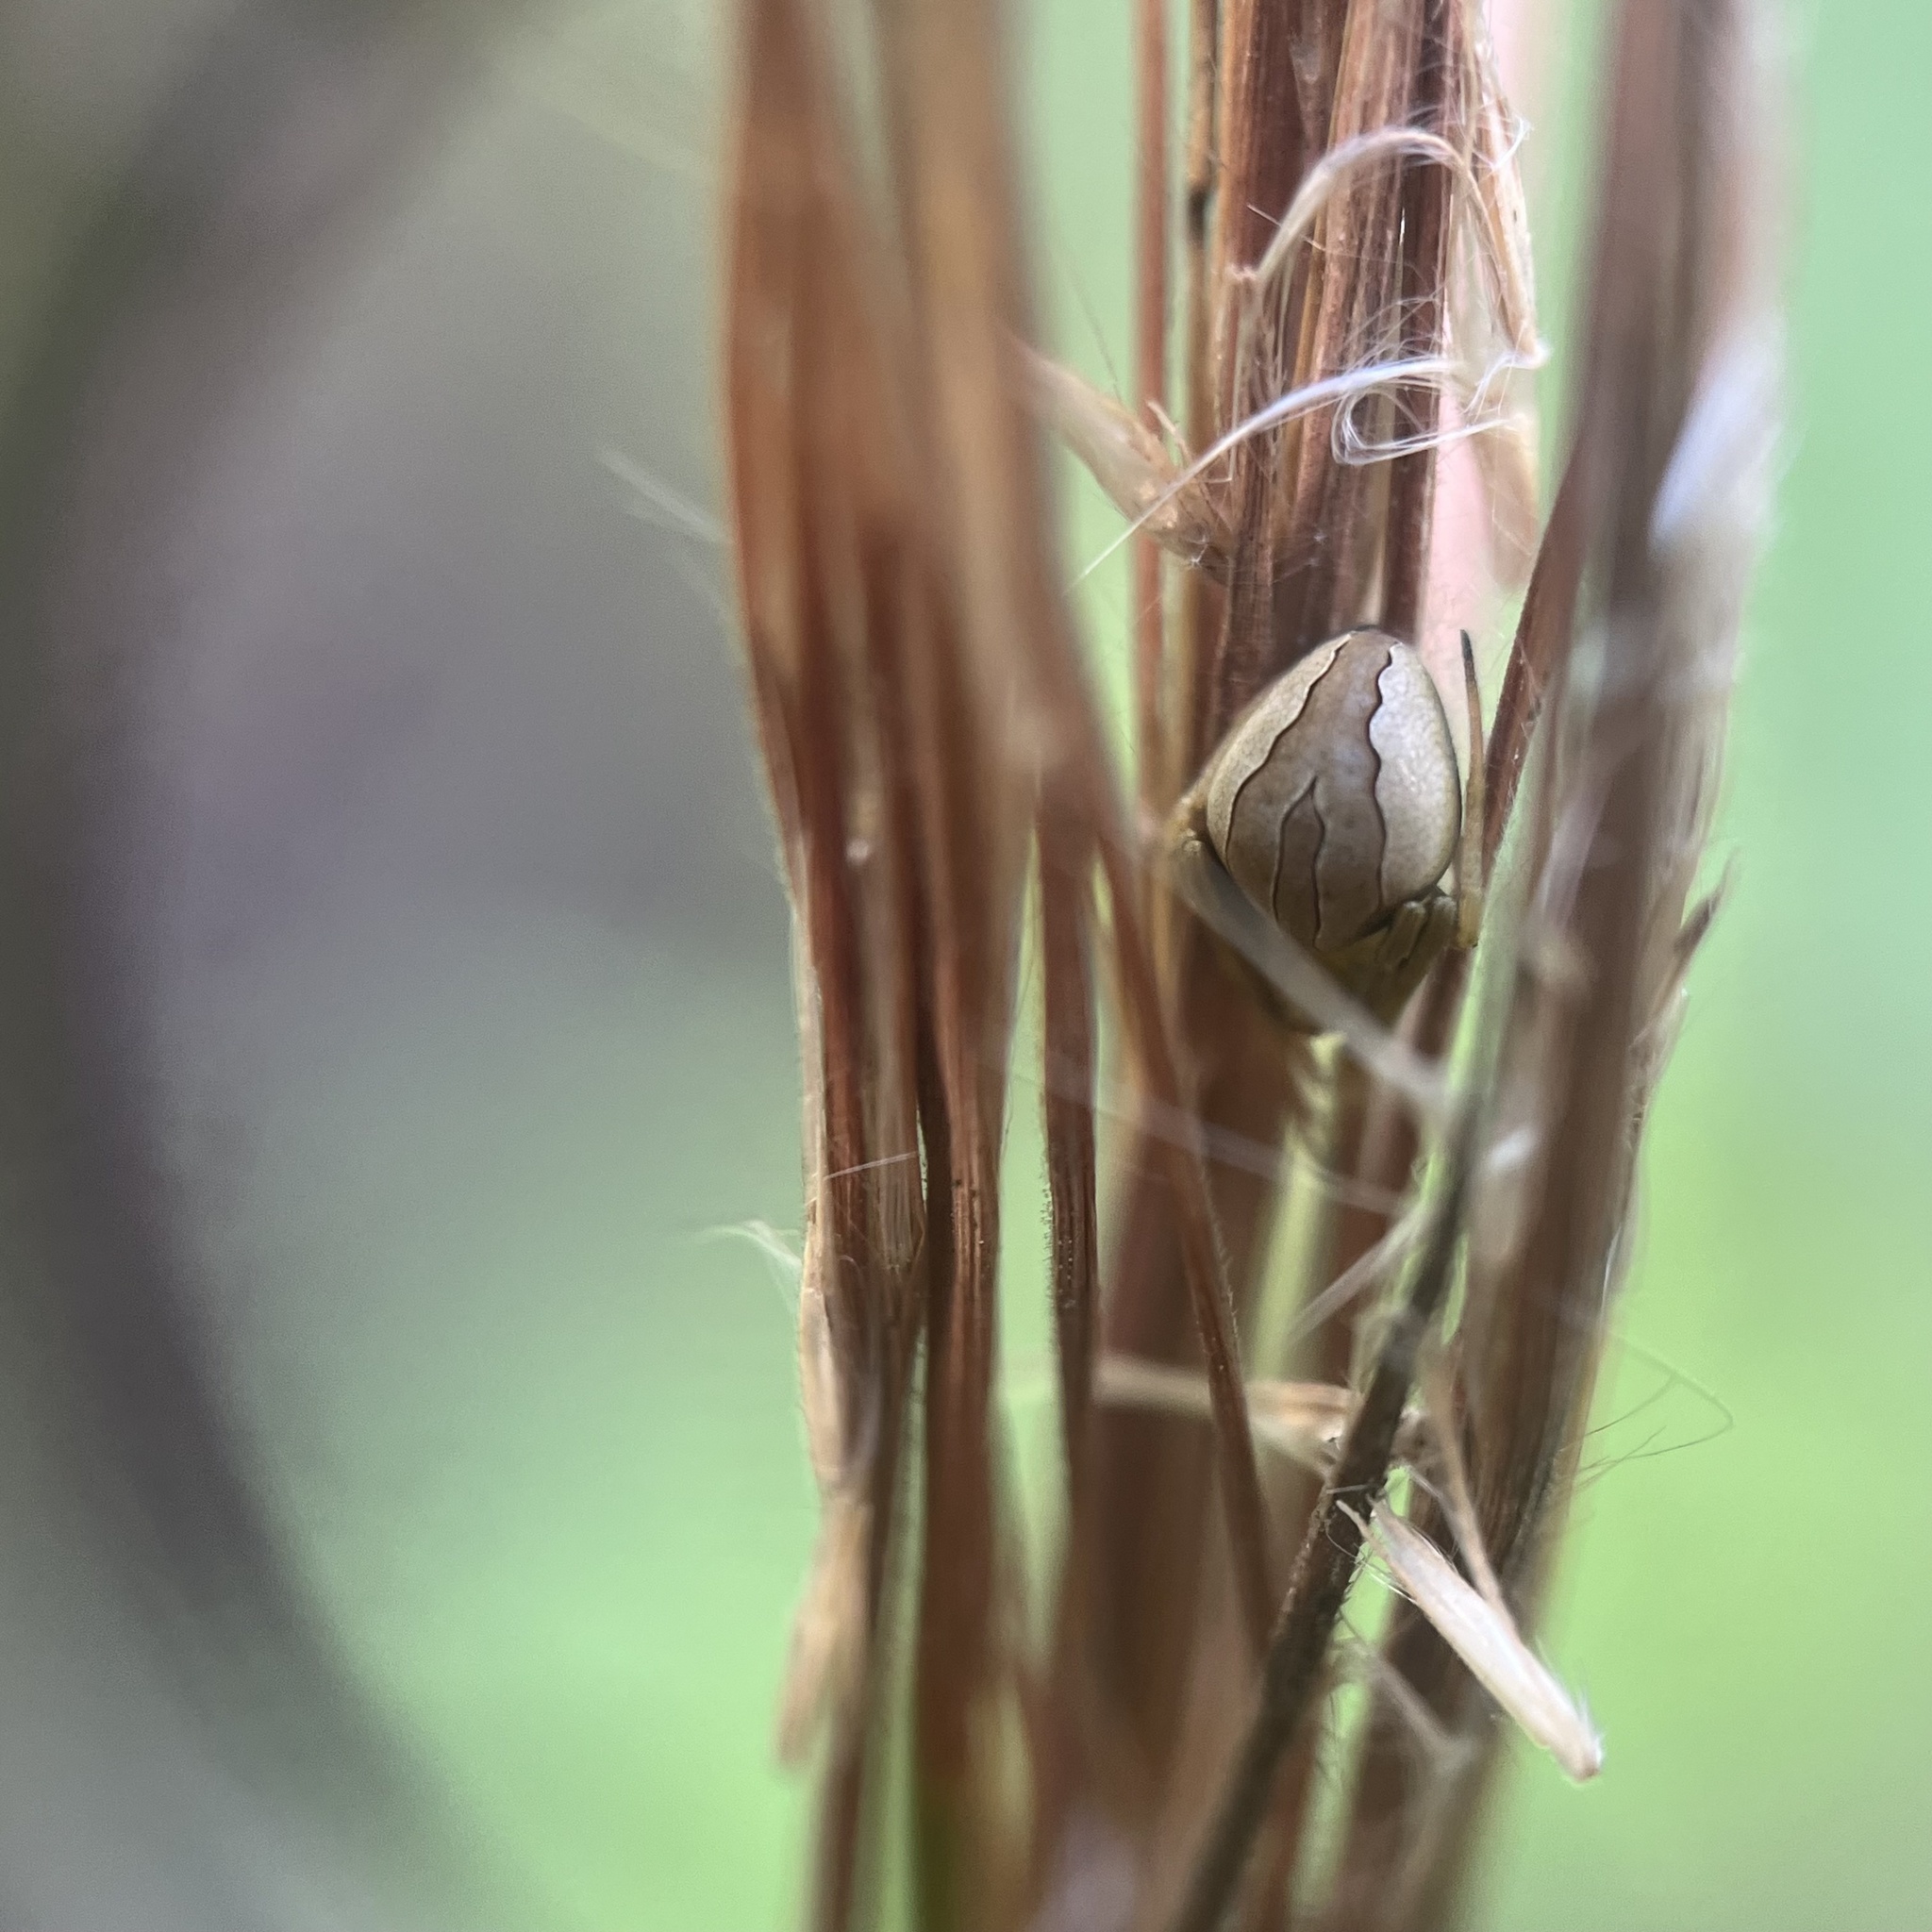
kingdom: Animalia
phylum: Arthropoda
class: Arachnida
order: Araneae
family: Araneidae
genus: Acacesia
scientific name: Acacesia hamata
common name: Orb weavers
